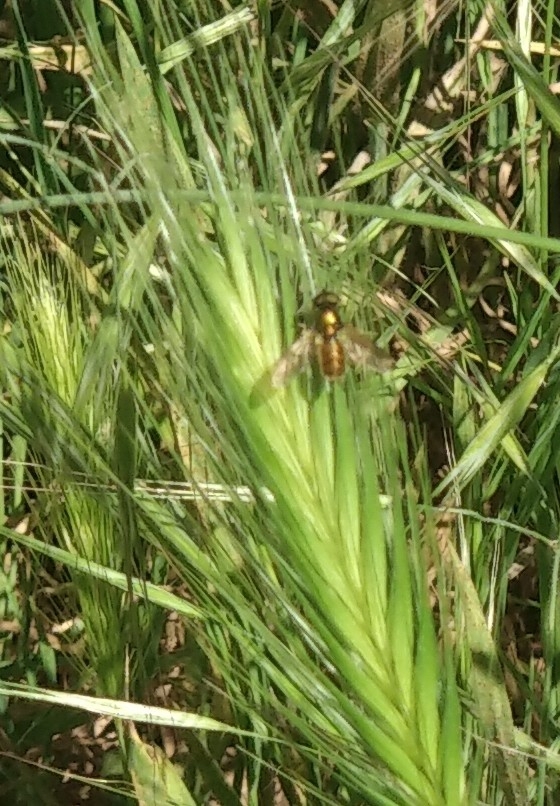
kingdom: Animalia
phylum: Arthropoda
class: Insecta
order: Diptera
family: Stratiomyidae
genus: Chloromyia
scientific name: Chloromyia formosa
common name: Soldier fly
